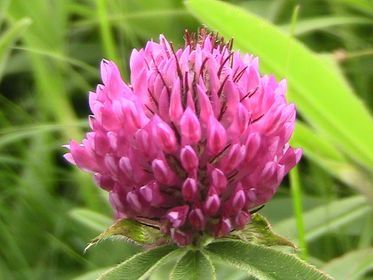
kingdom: Plantae
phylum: Tracheophyta
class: Magnoliopsida
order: Fabales
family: Fabaceae
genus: Trifolium
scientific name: Trifolium alpestre
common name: Owl-head clover
